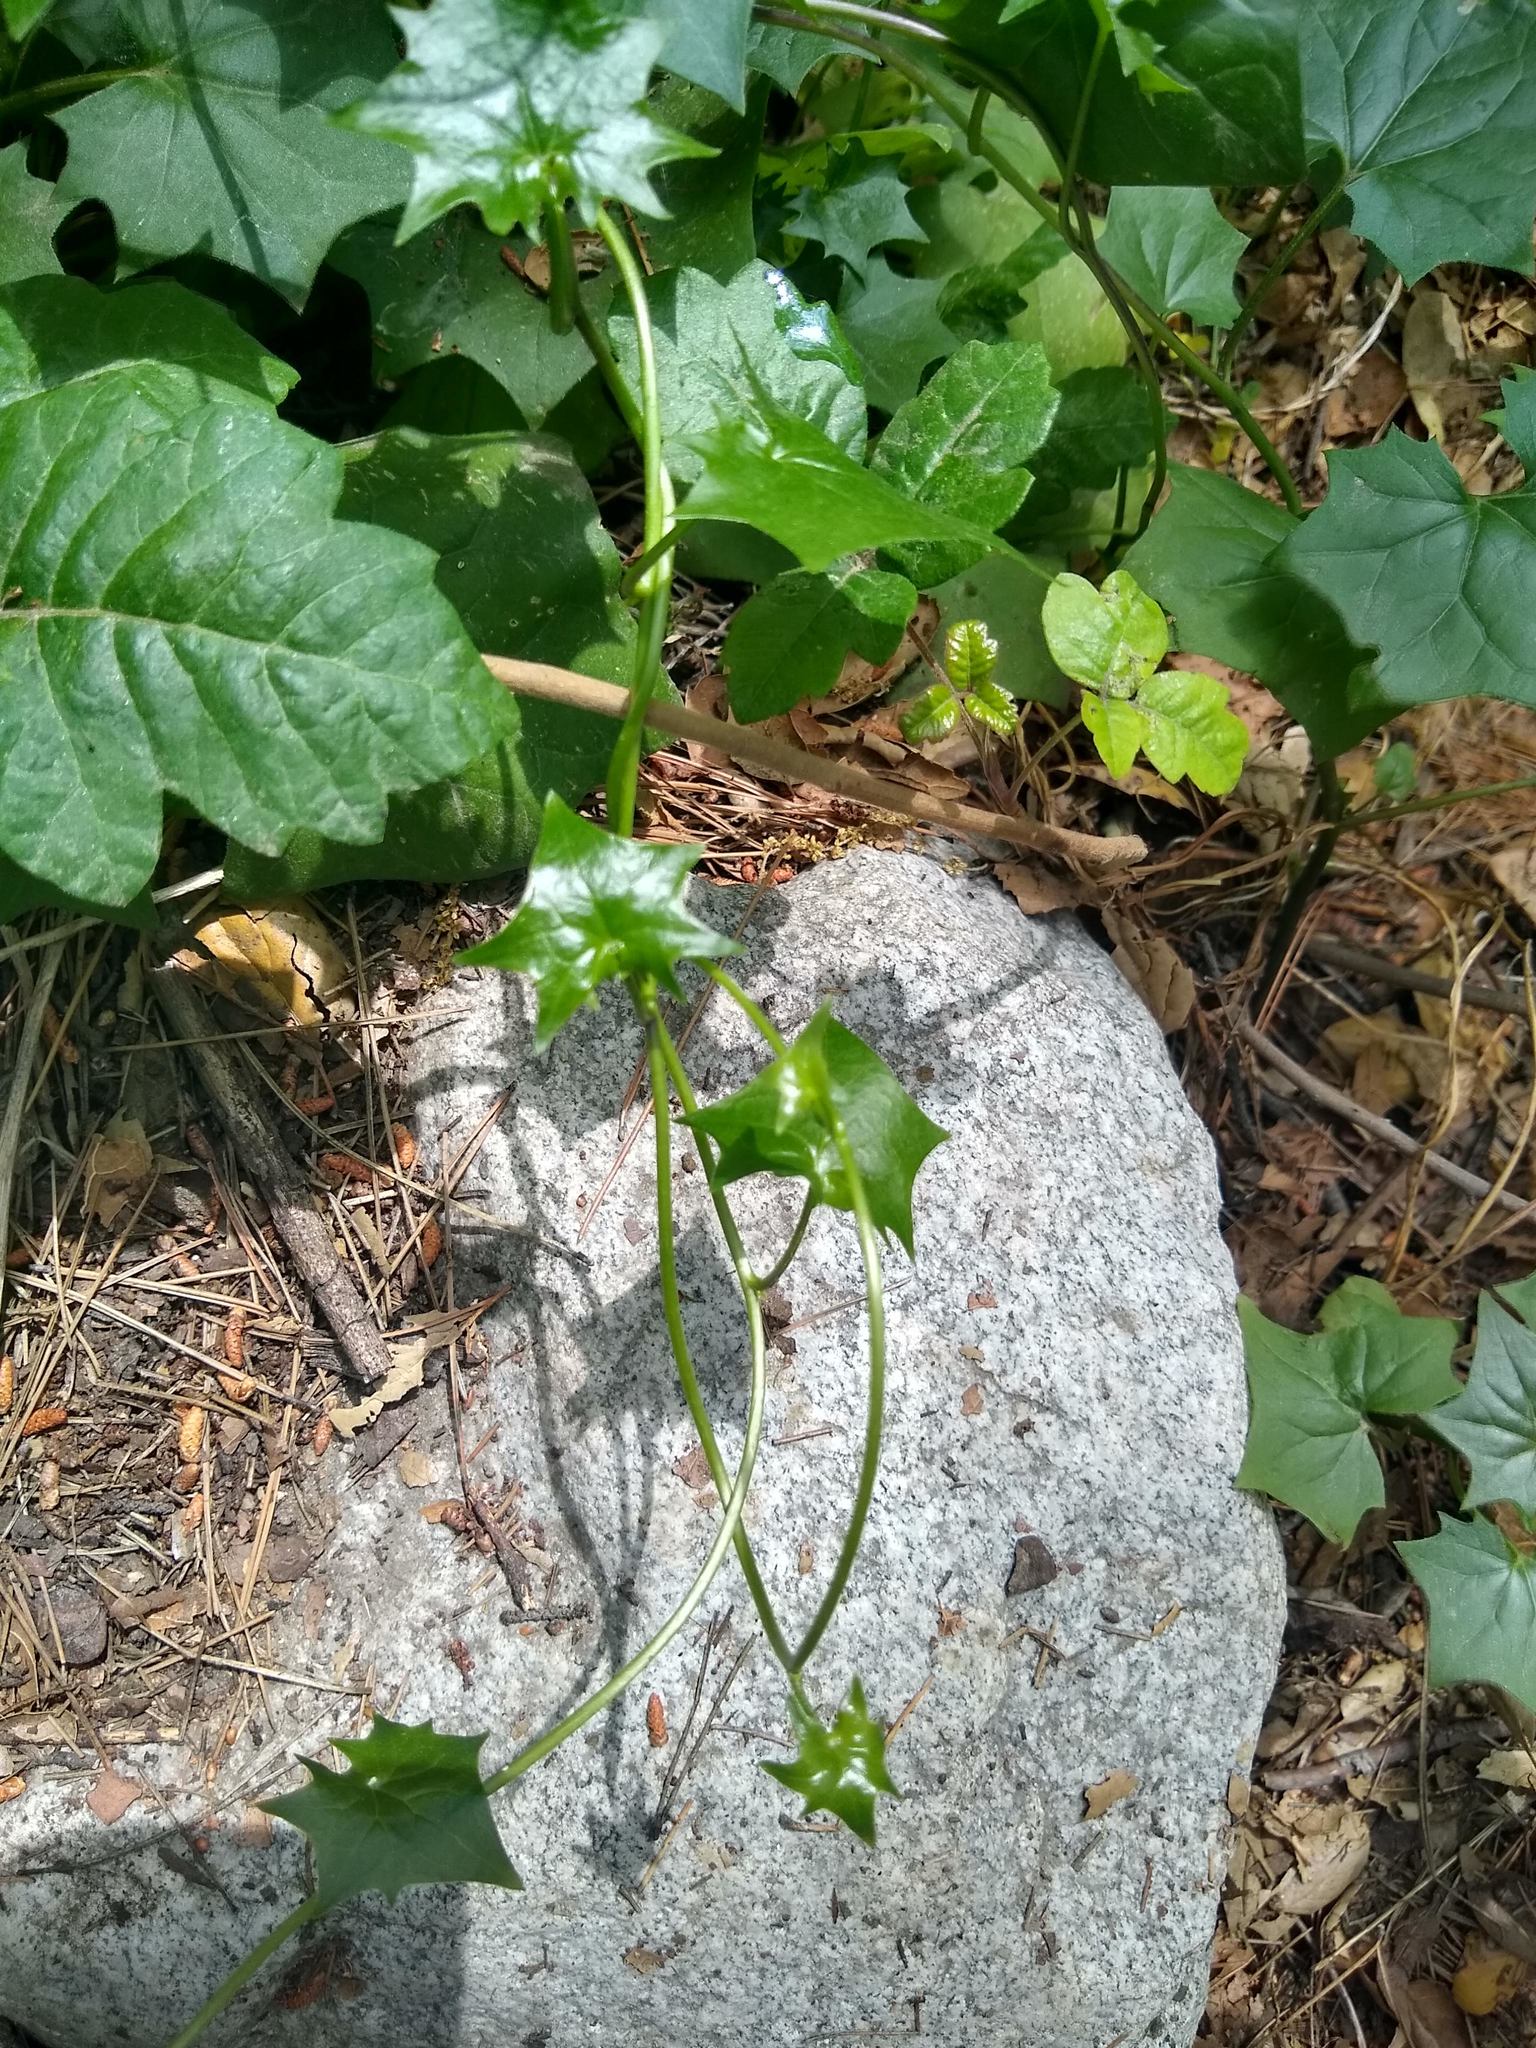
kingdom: Plantae
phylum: Tracheophyta
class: Magnoliopsida
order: Asterales
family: Asteraceae
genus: Delairea
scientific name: Delairea odorata
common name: Cape-ivy
